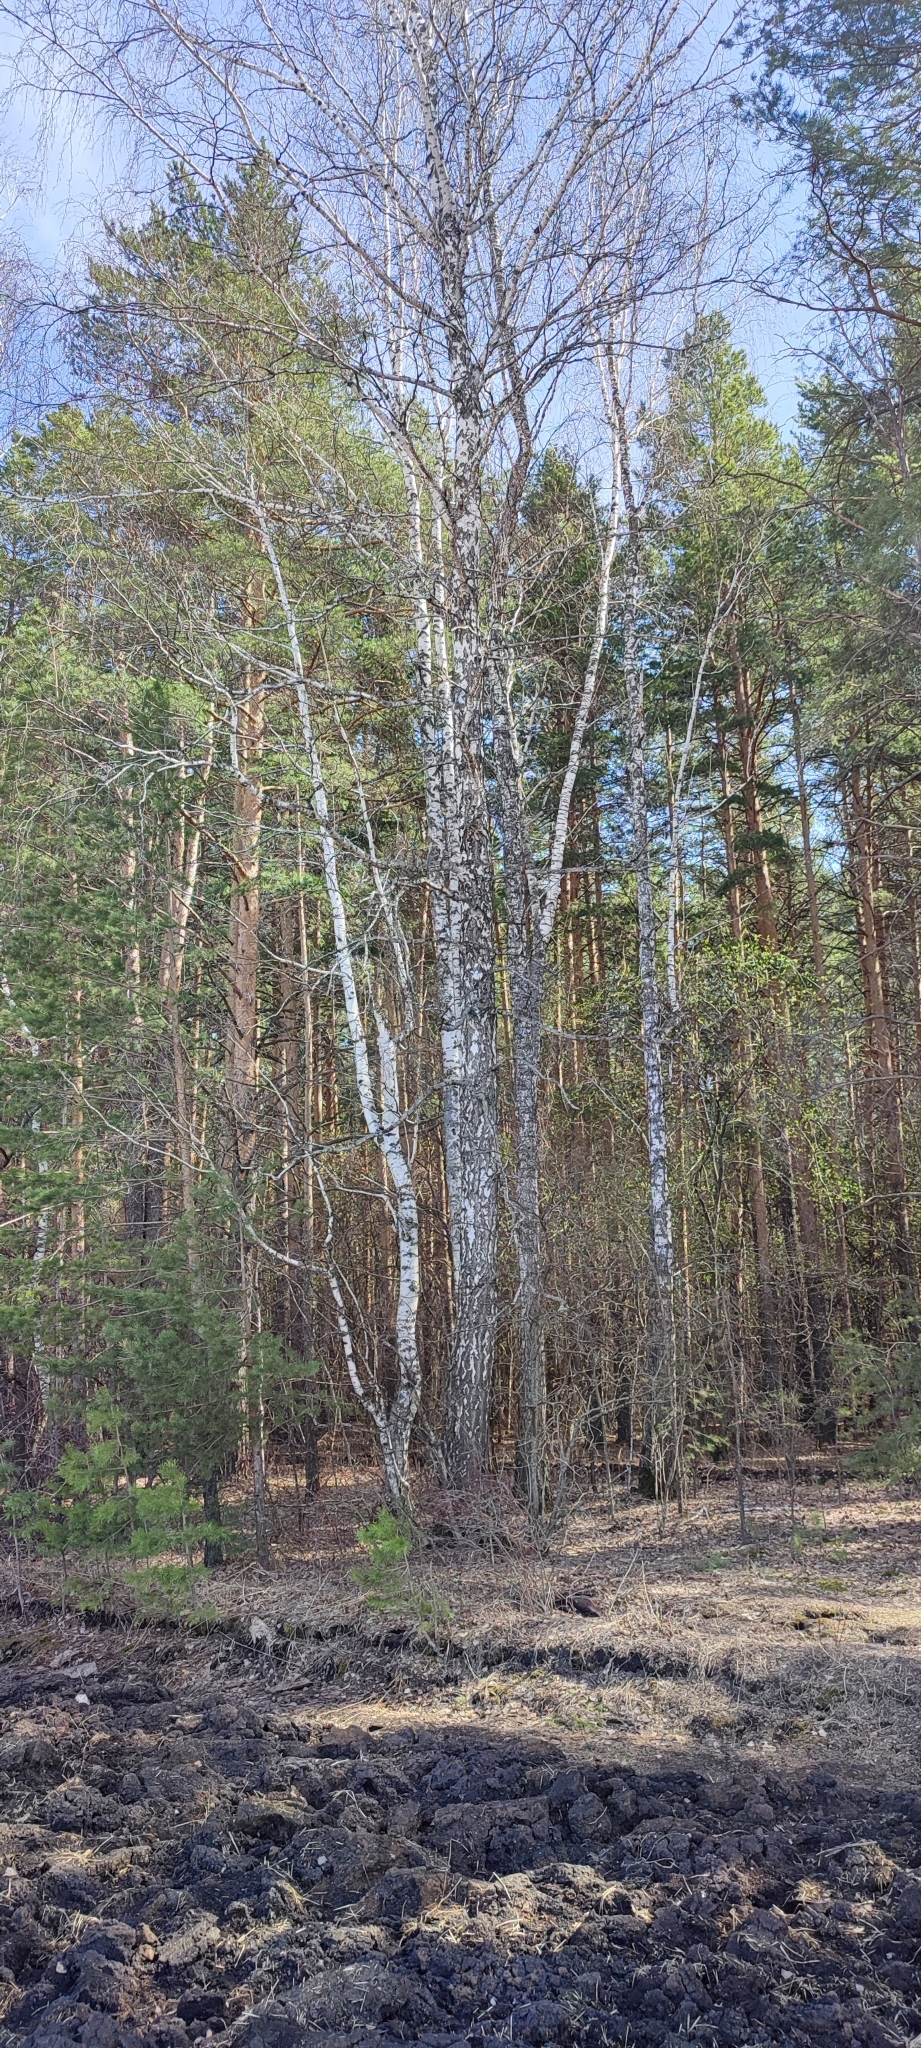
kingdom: Plantae
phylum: Tracheophyta
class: Magnoliopsida
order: Fagales
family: Betulaceae
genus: Betula
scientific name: Betula pendula
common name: Silver birch
